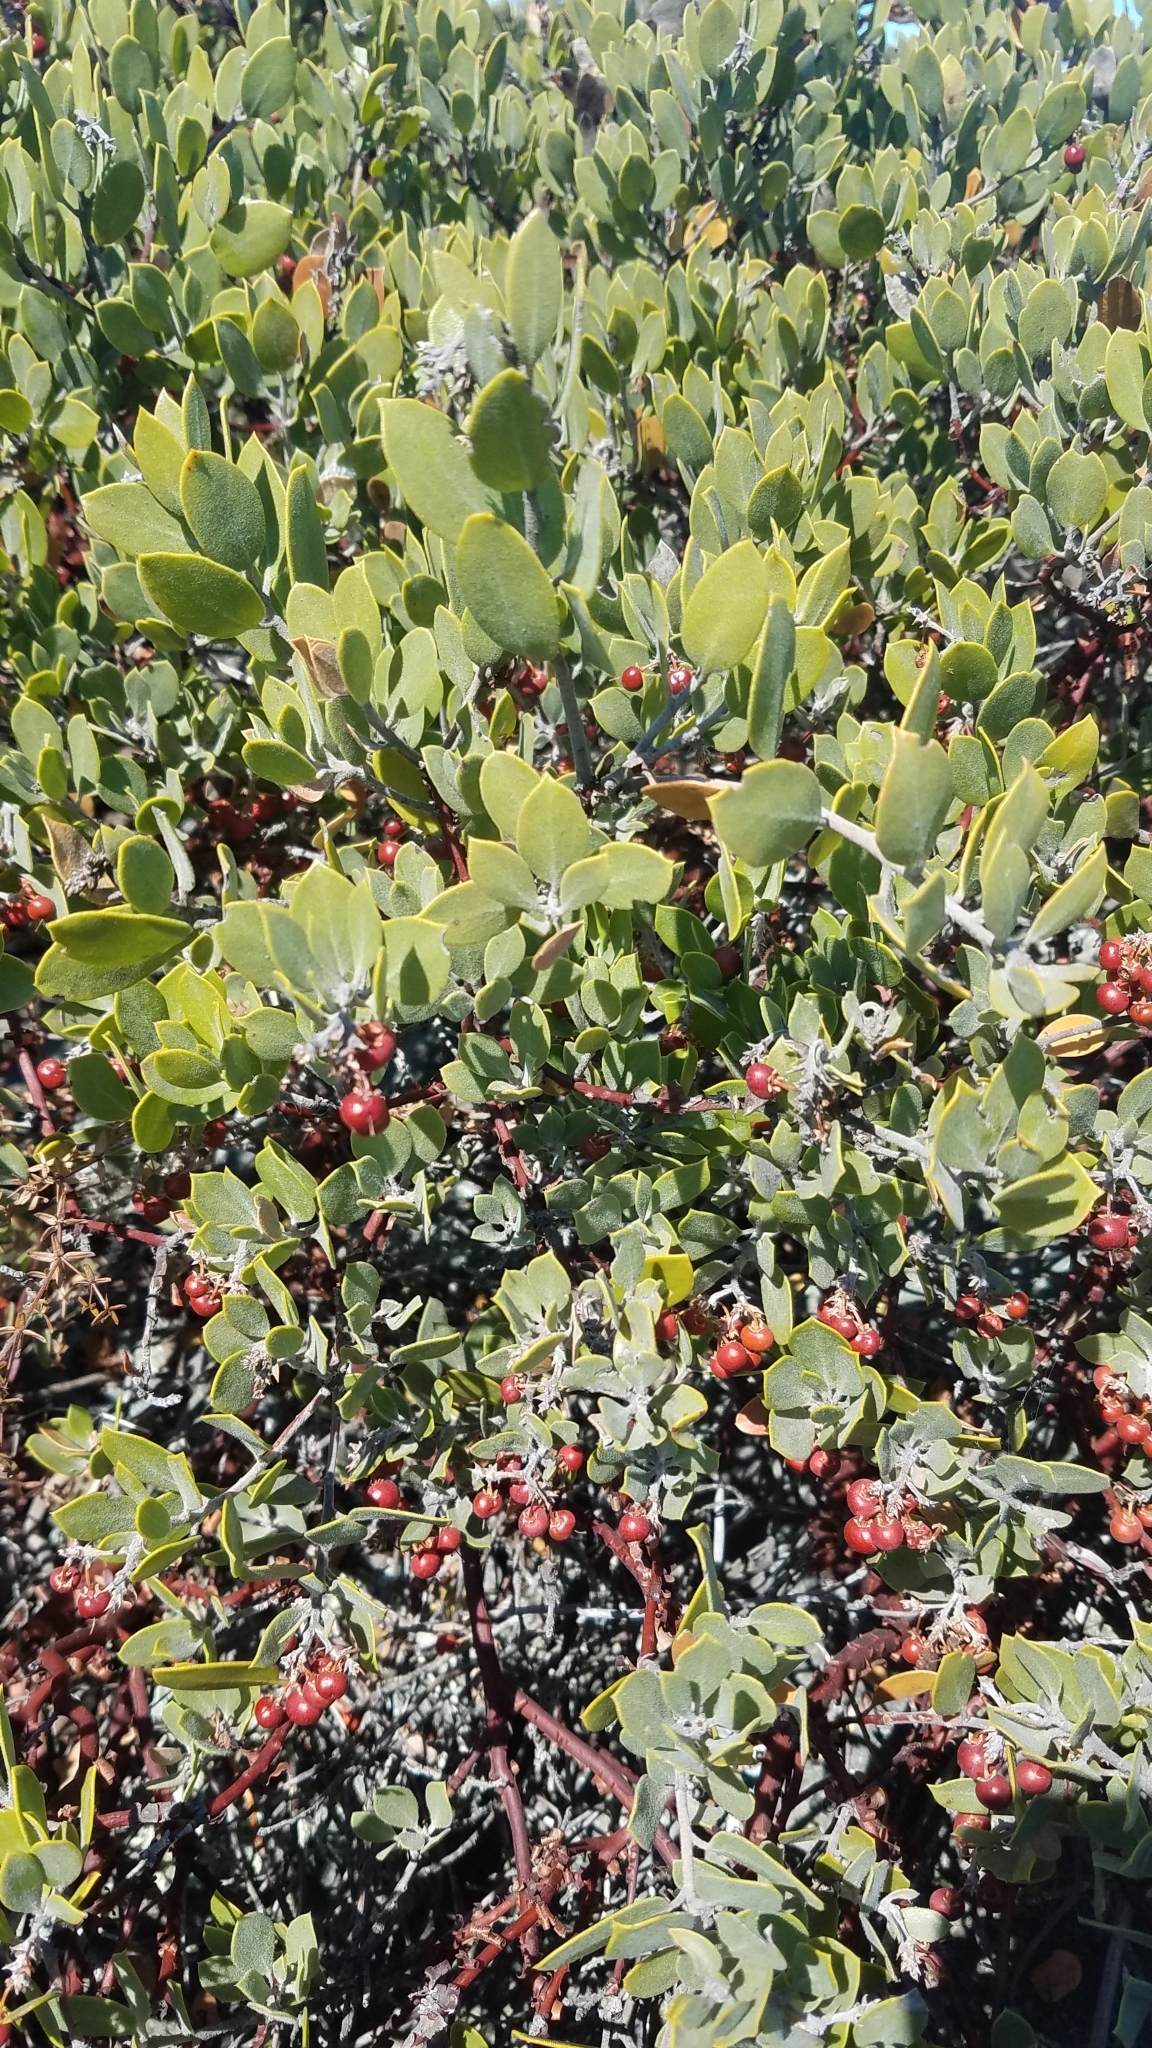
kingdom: Plantae
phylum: Tracheophyta
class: Magnoliopsida
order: Ericales
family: Ericaceae
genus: Arctostaphylos
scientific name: Arctostaphylos montana
